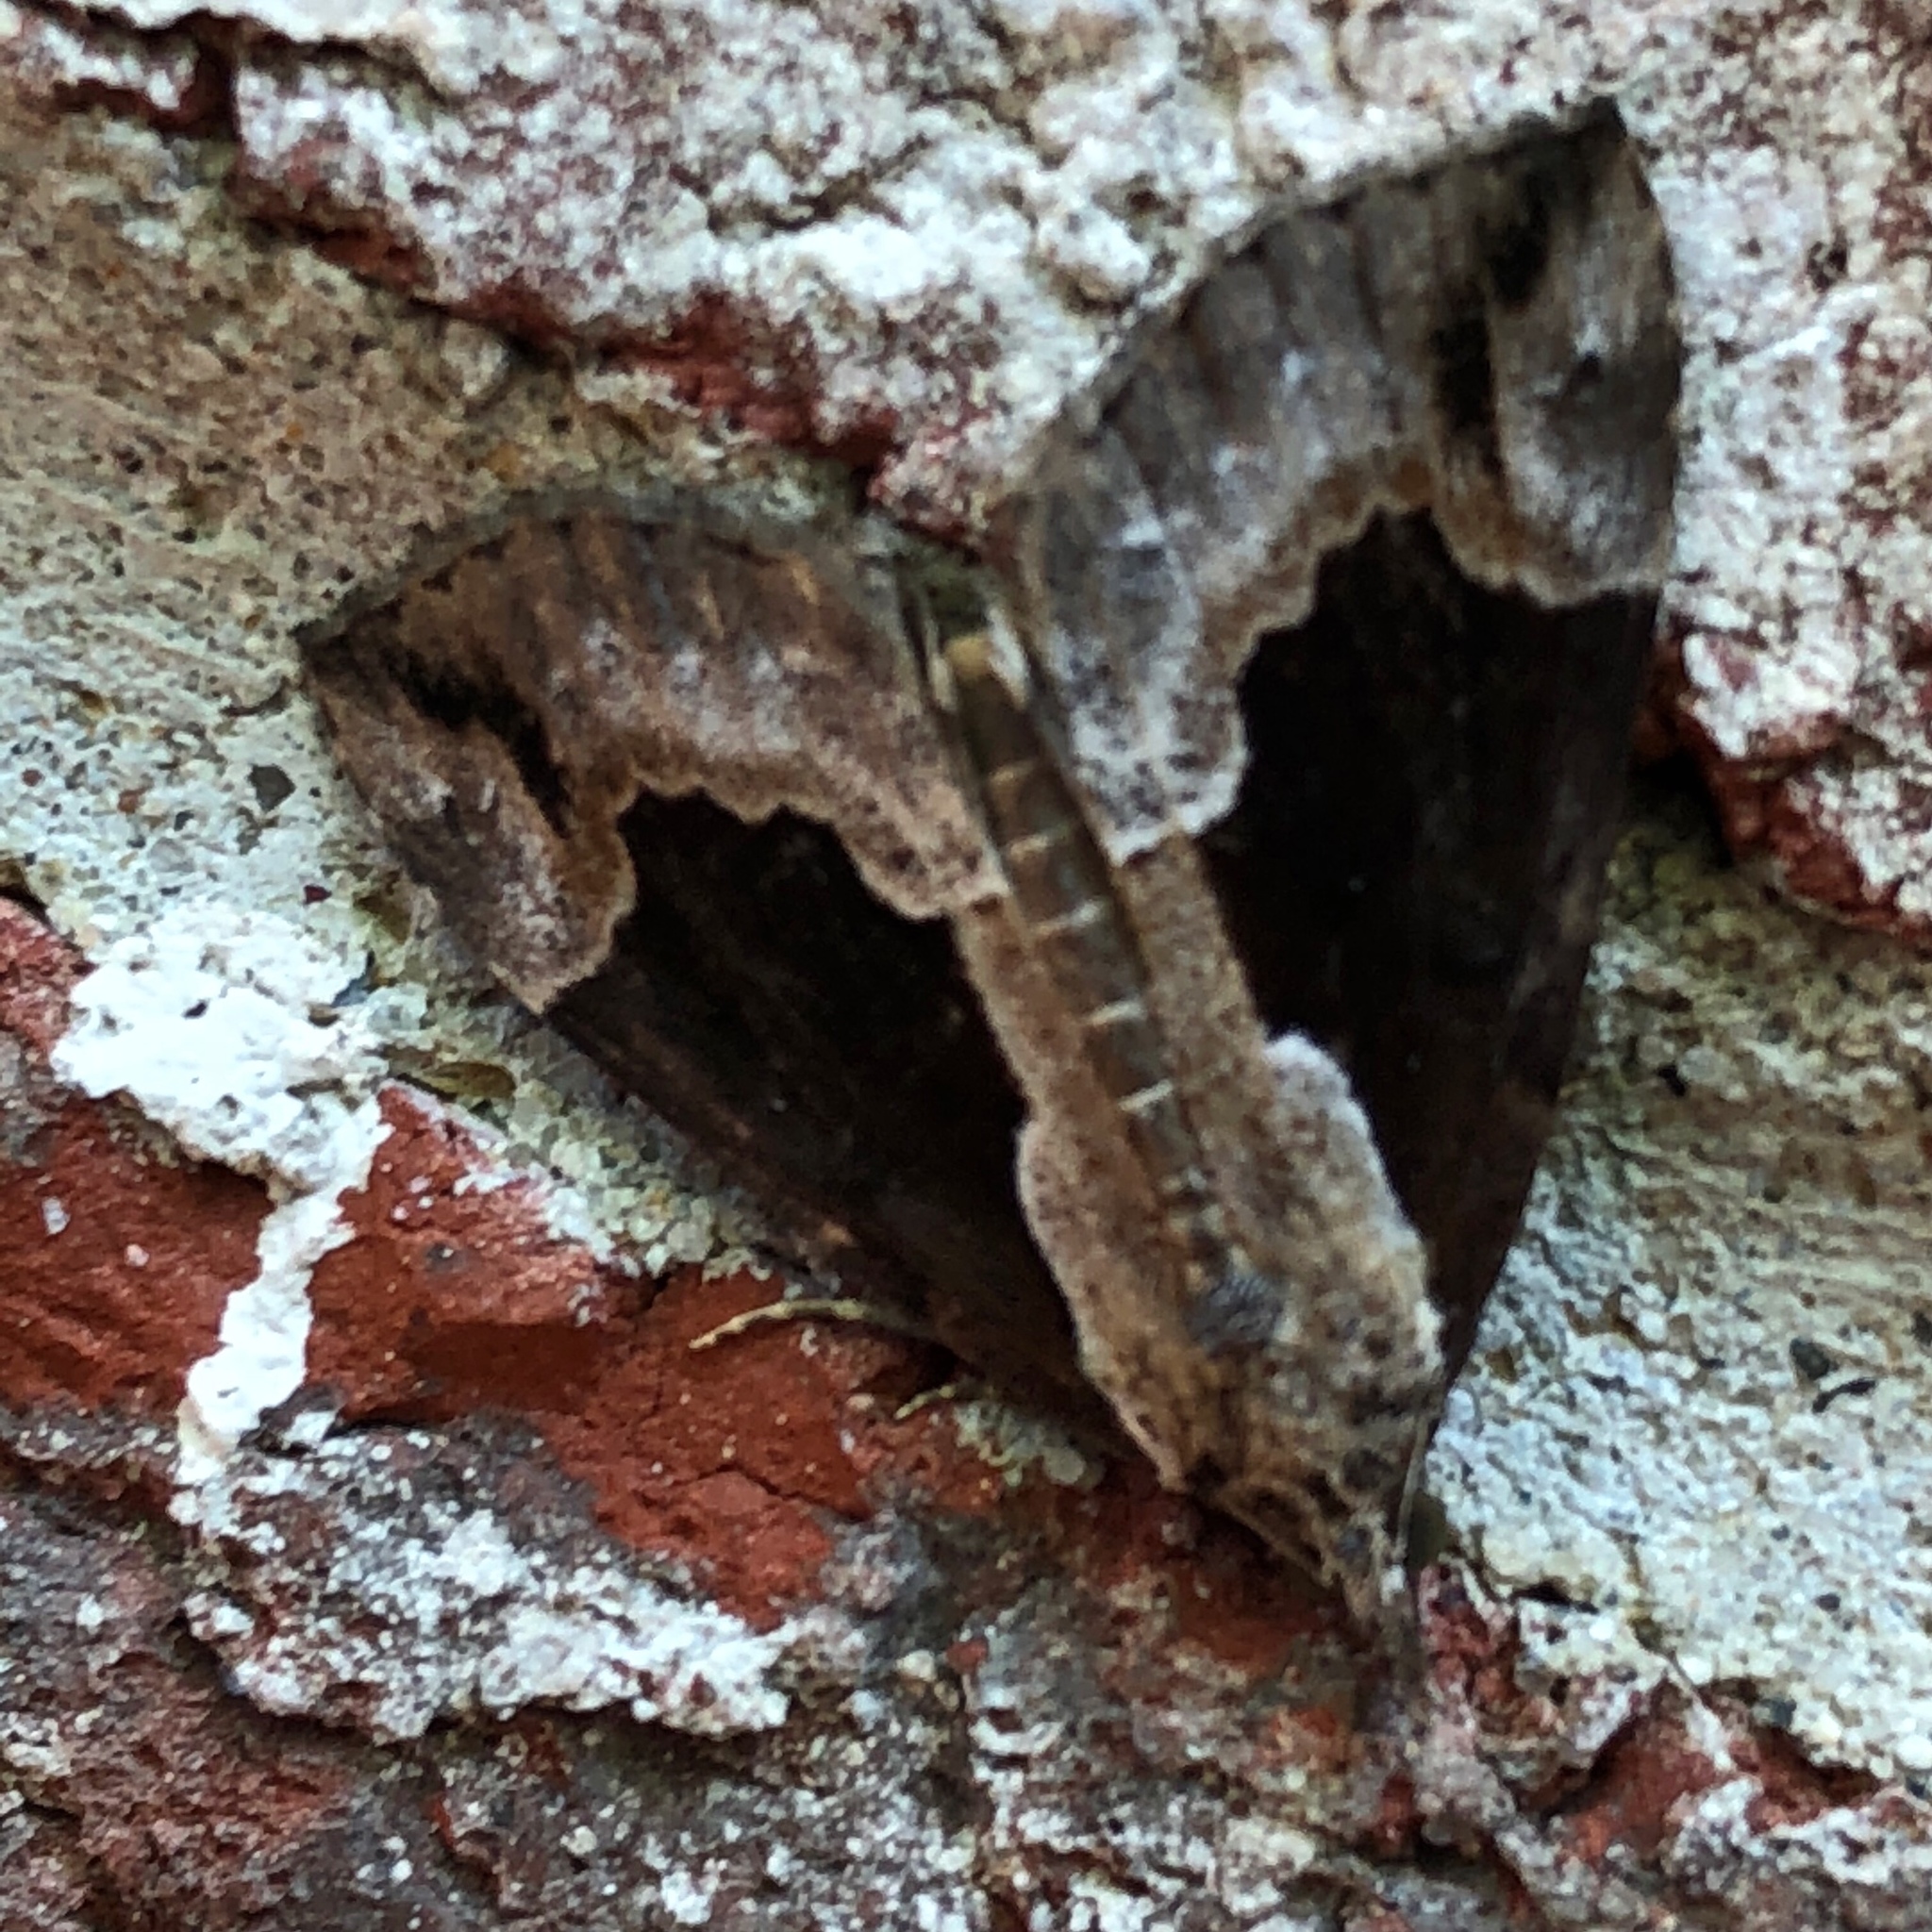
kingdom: Animalia
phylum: Arthropoda
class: Insecta
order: Lepidoptera
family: Erebidae
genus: Hypena
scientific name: Hypena baltimoralis
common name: Baltimore snout
